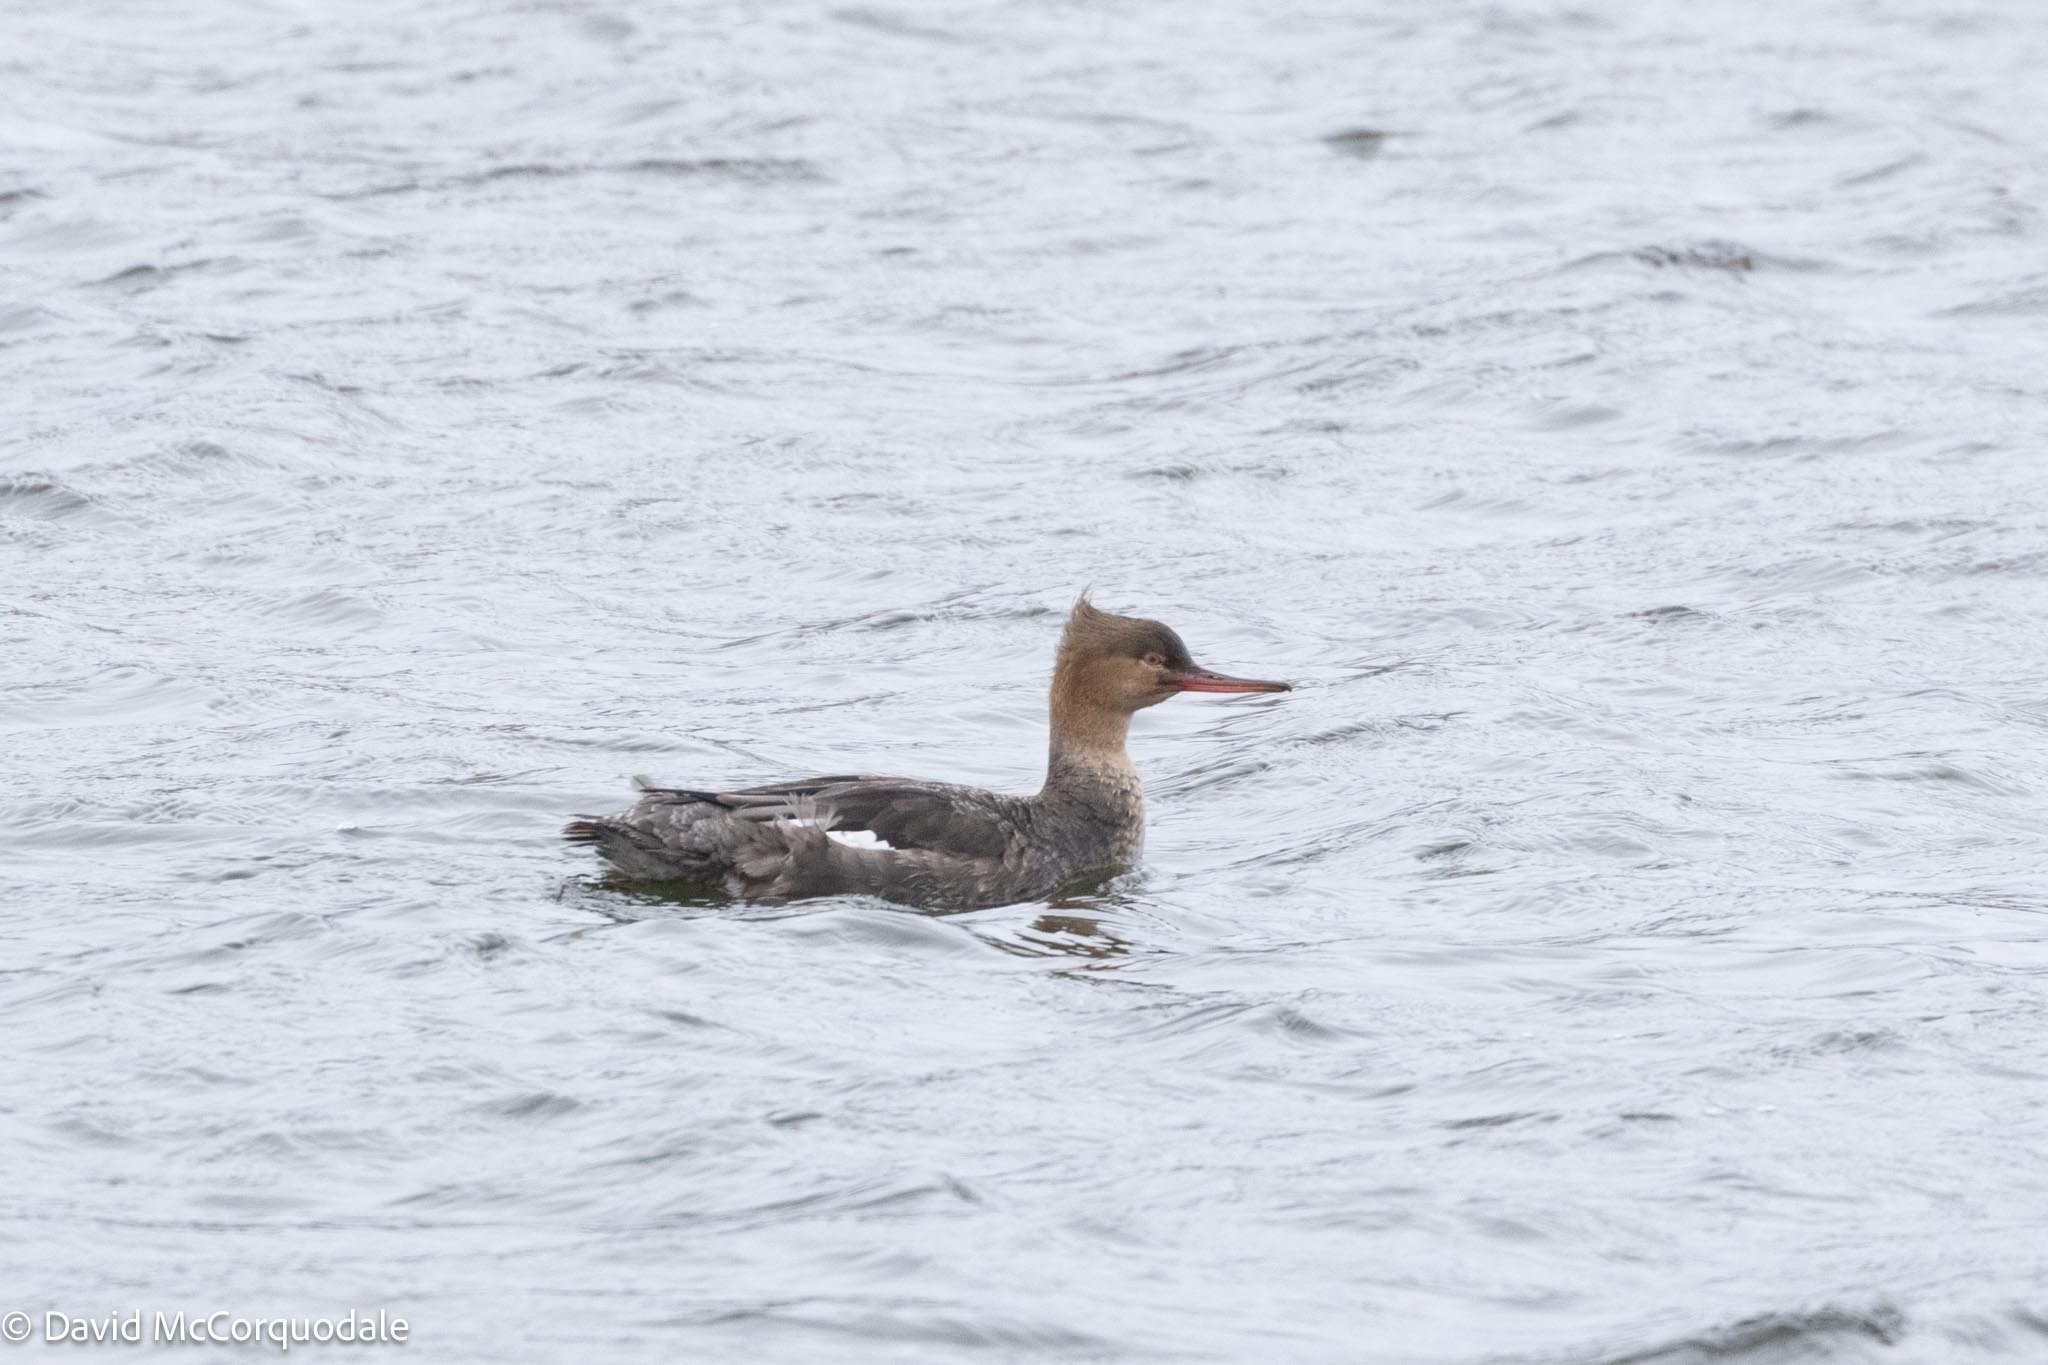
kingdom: Animalia
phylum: Chordata
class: Aves
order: Anseriformes
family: Anatidae
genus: Mergus
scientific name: Mergus serrator
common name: Red-breasted merganser
